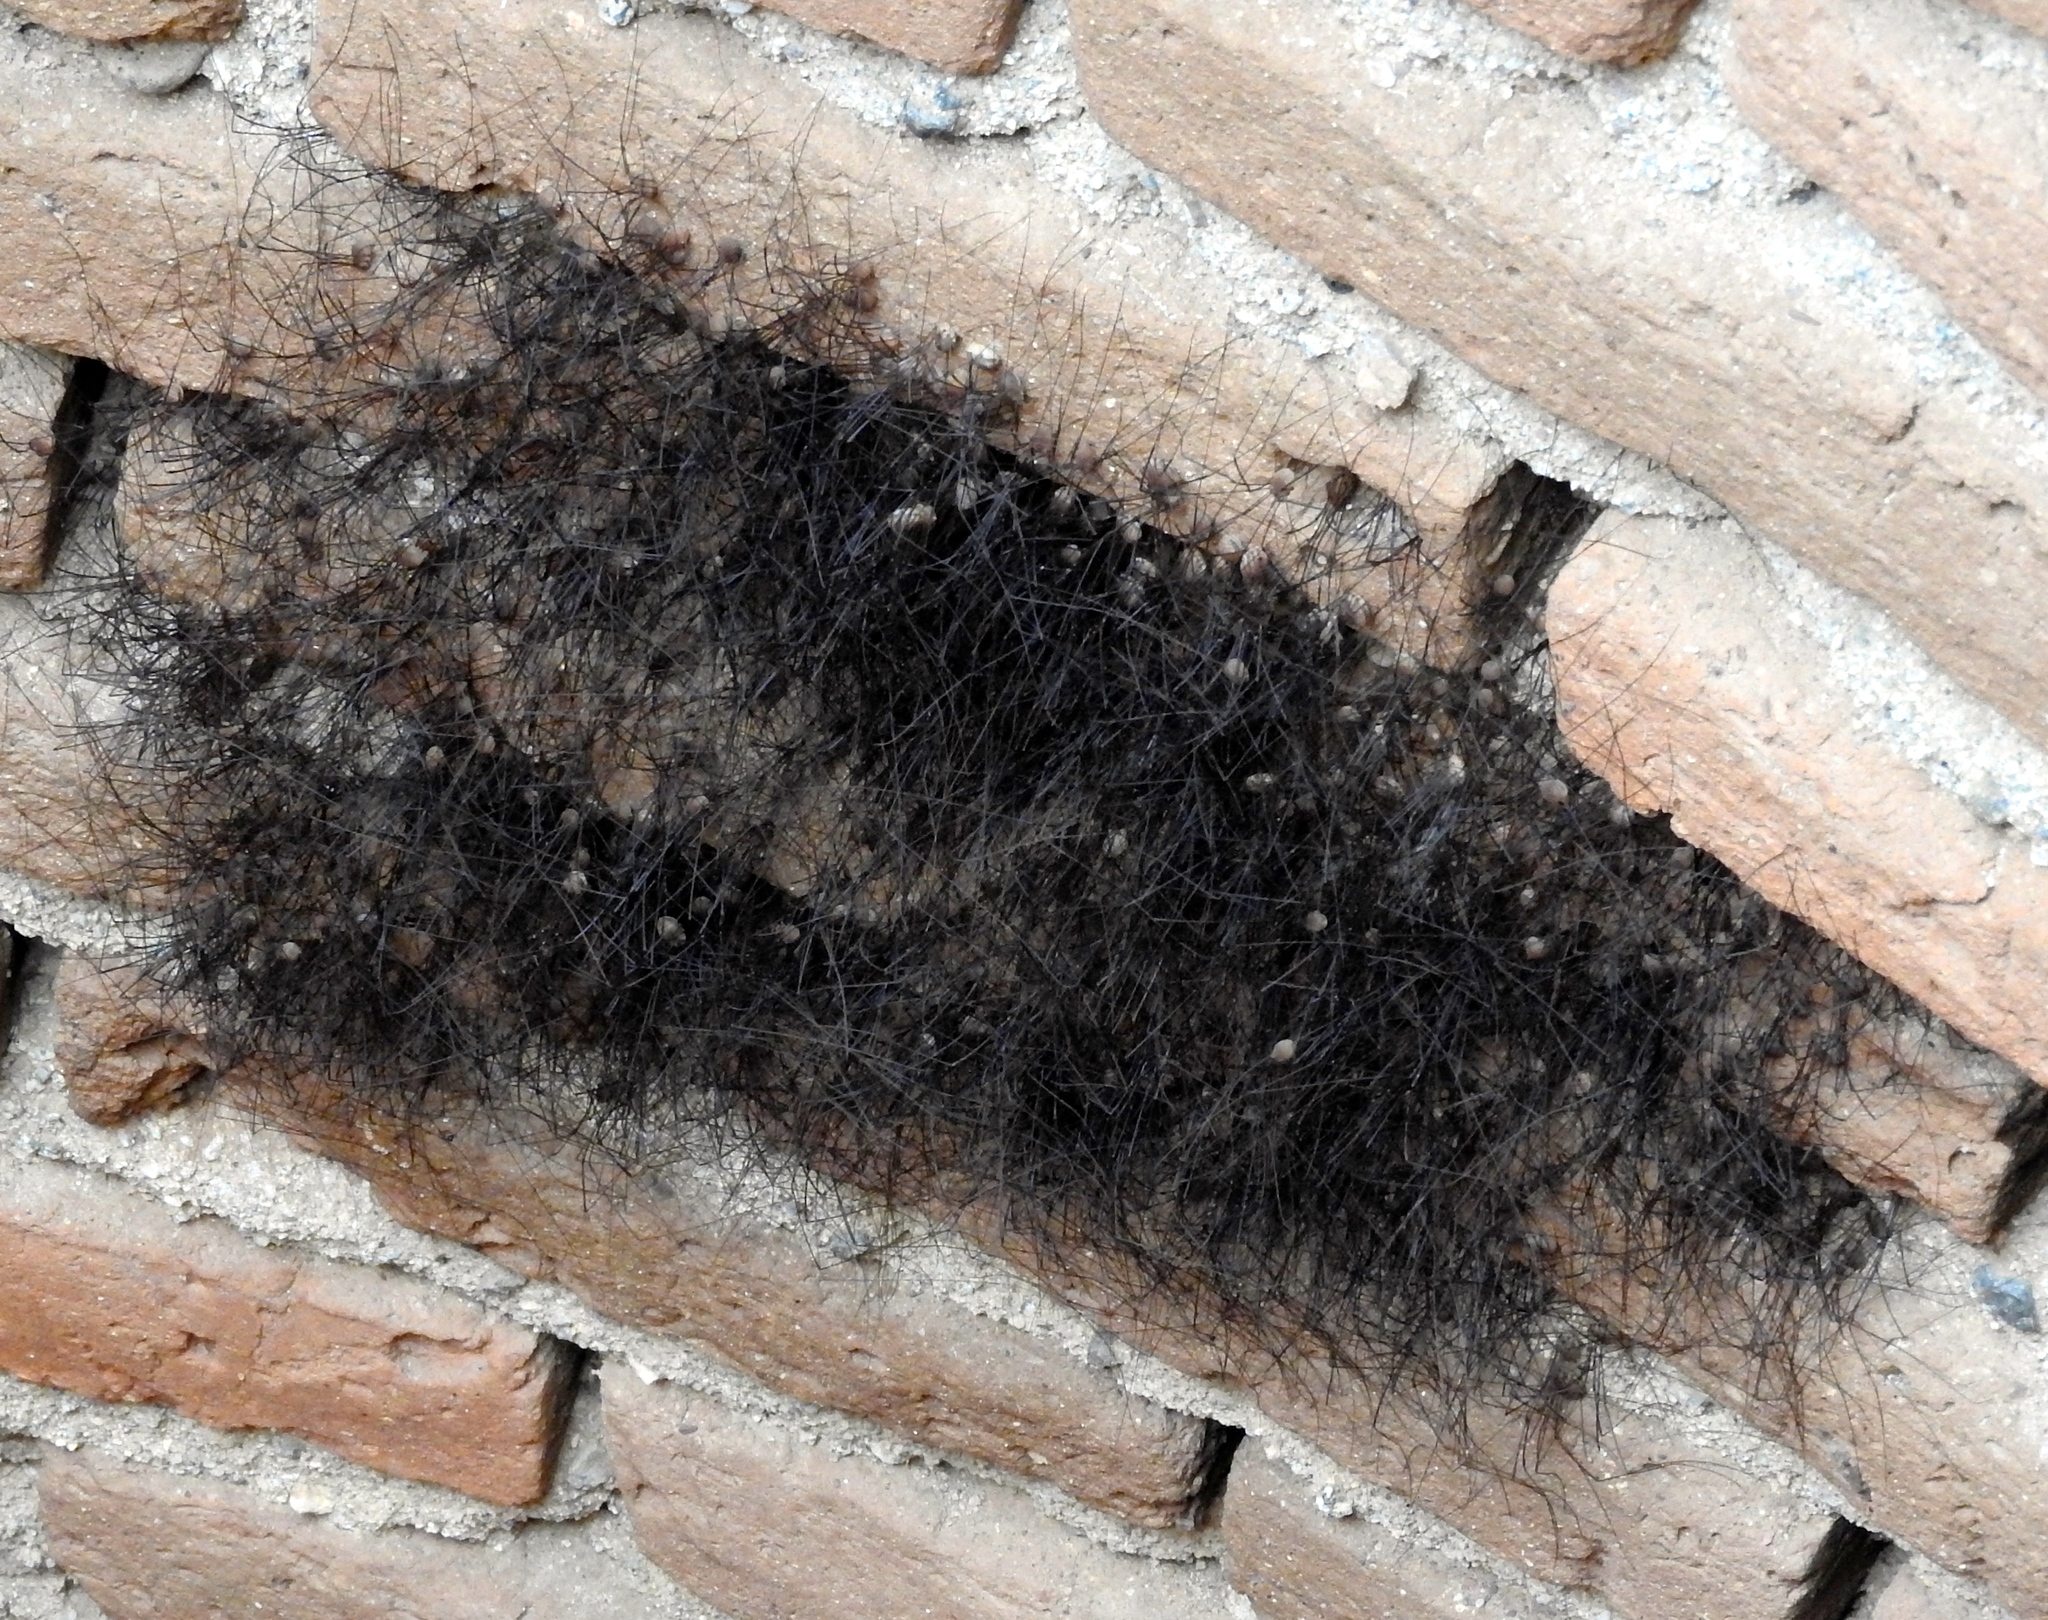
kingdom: Animalia
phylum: Arthropoda
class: Arachnida
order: Opiliones
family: Sclerosomatidae
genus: Leiobunum
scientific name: Leiobunum
